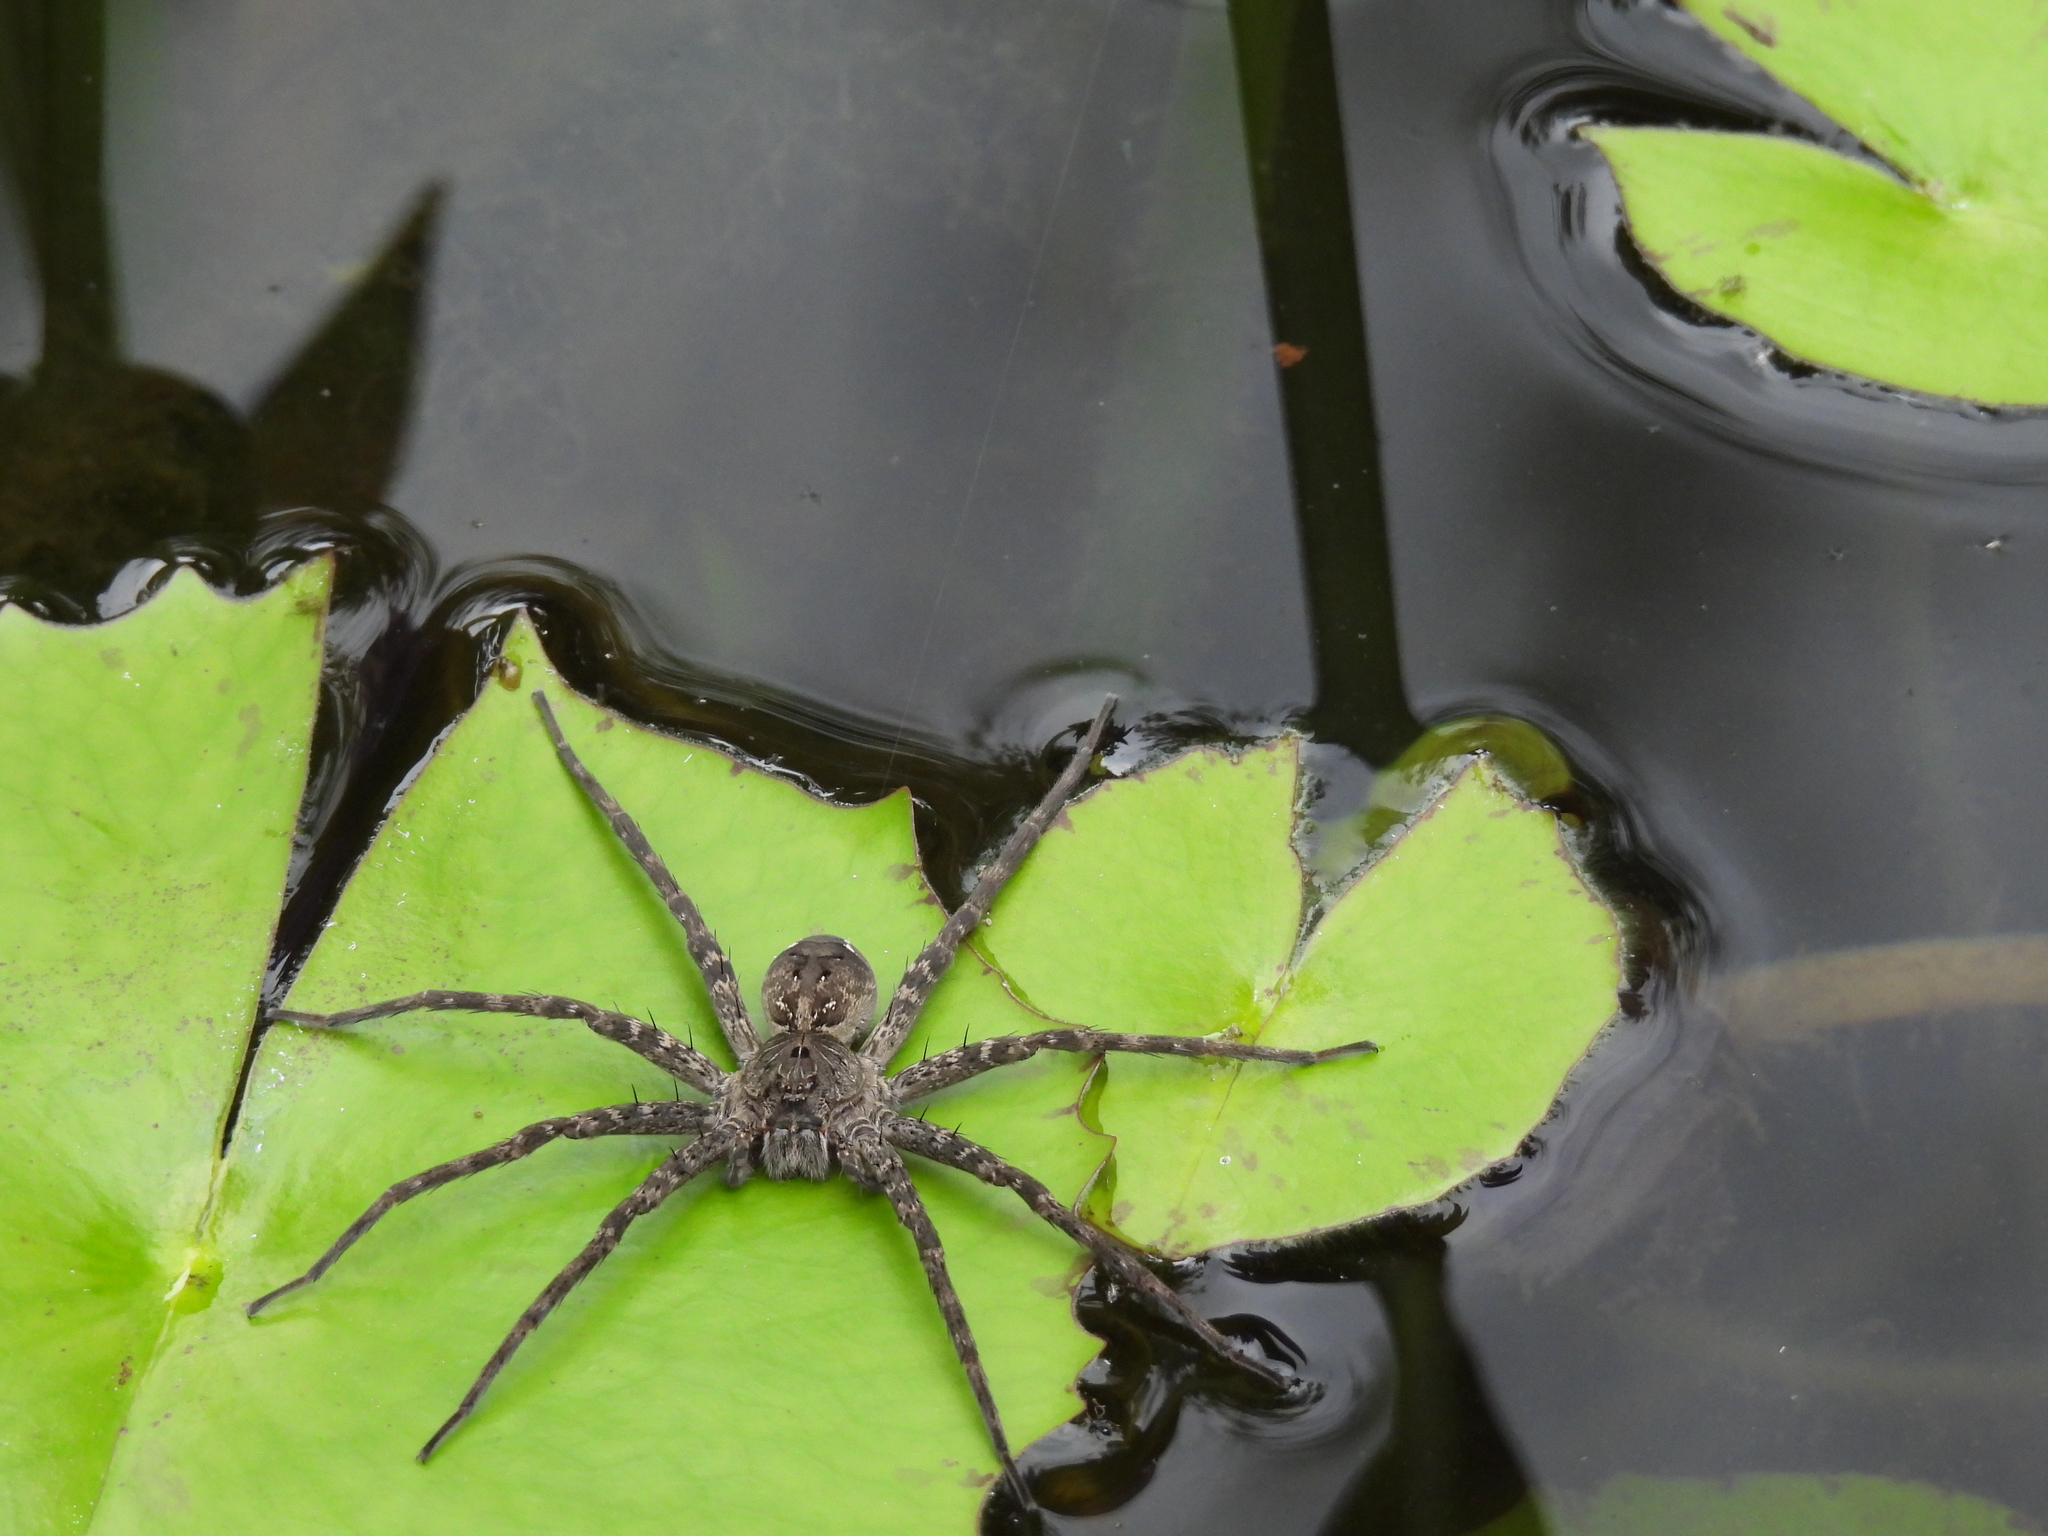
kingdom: Animalia
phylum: Arthropoda
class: Arachnida
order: Araneae
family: Pisauridae
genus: Dolomedes
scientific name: Dolomedes vittatus
